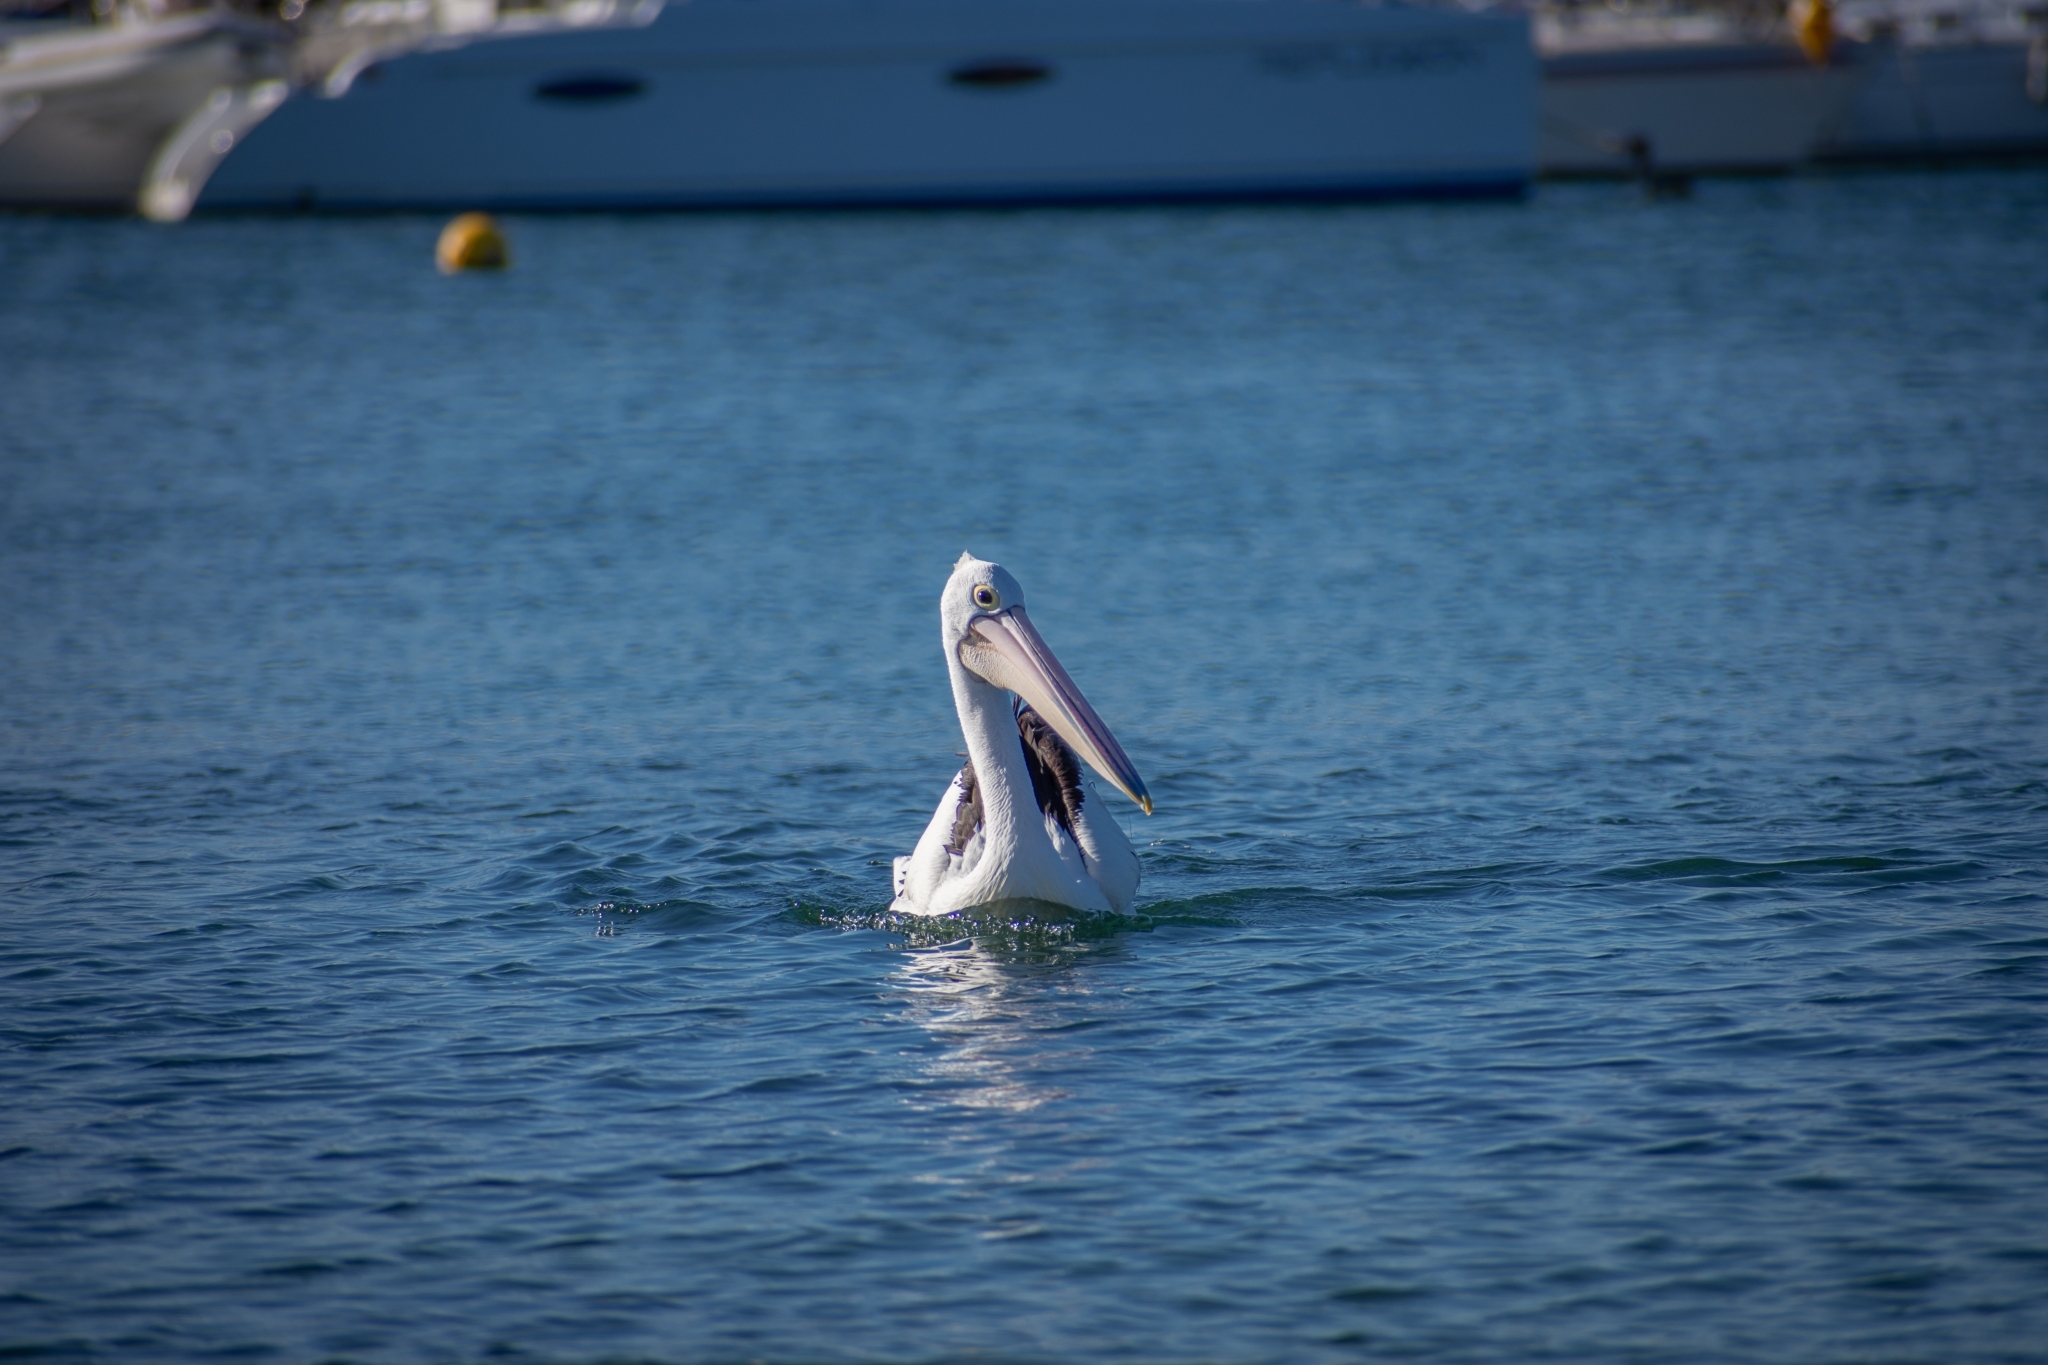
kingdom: Animalia
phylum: Chordata
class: Aves
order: Pelecaniformes
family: Pelecanidae
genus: Pelecanus
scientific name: Pelecanus conspicillatus
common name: Australian pelican
